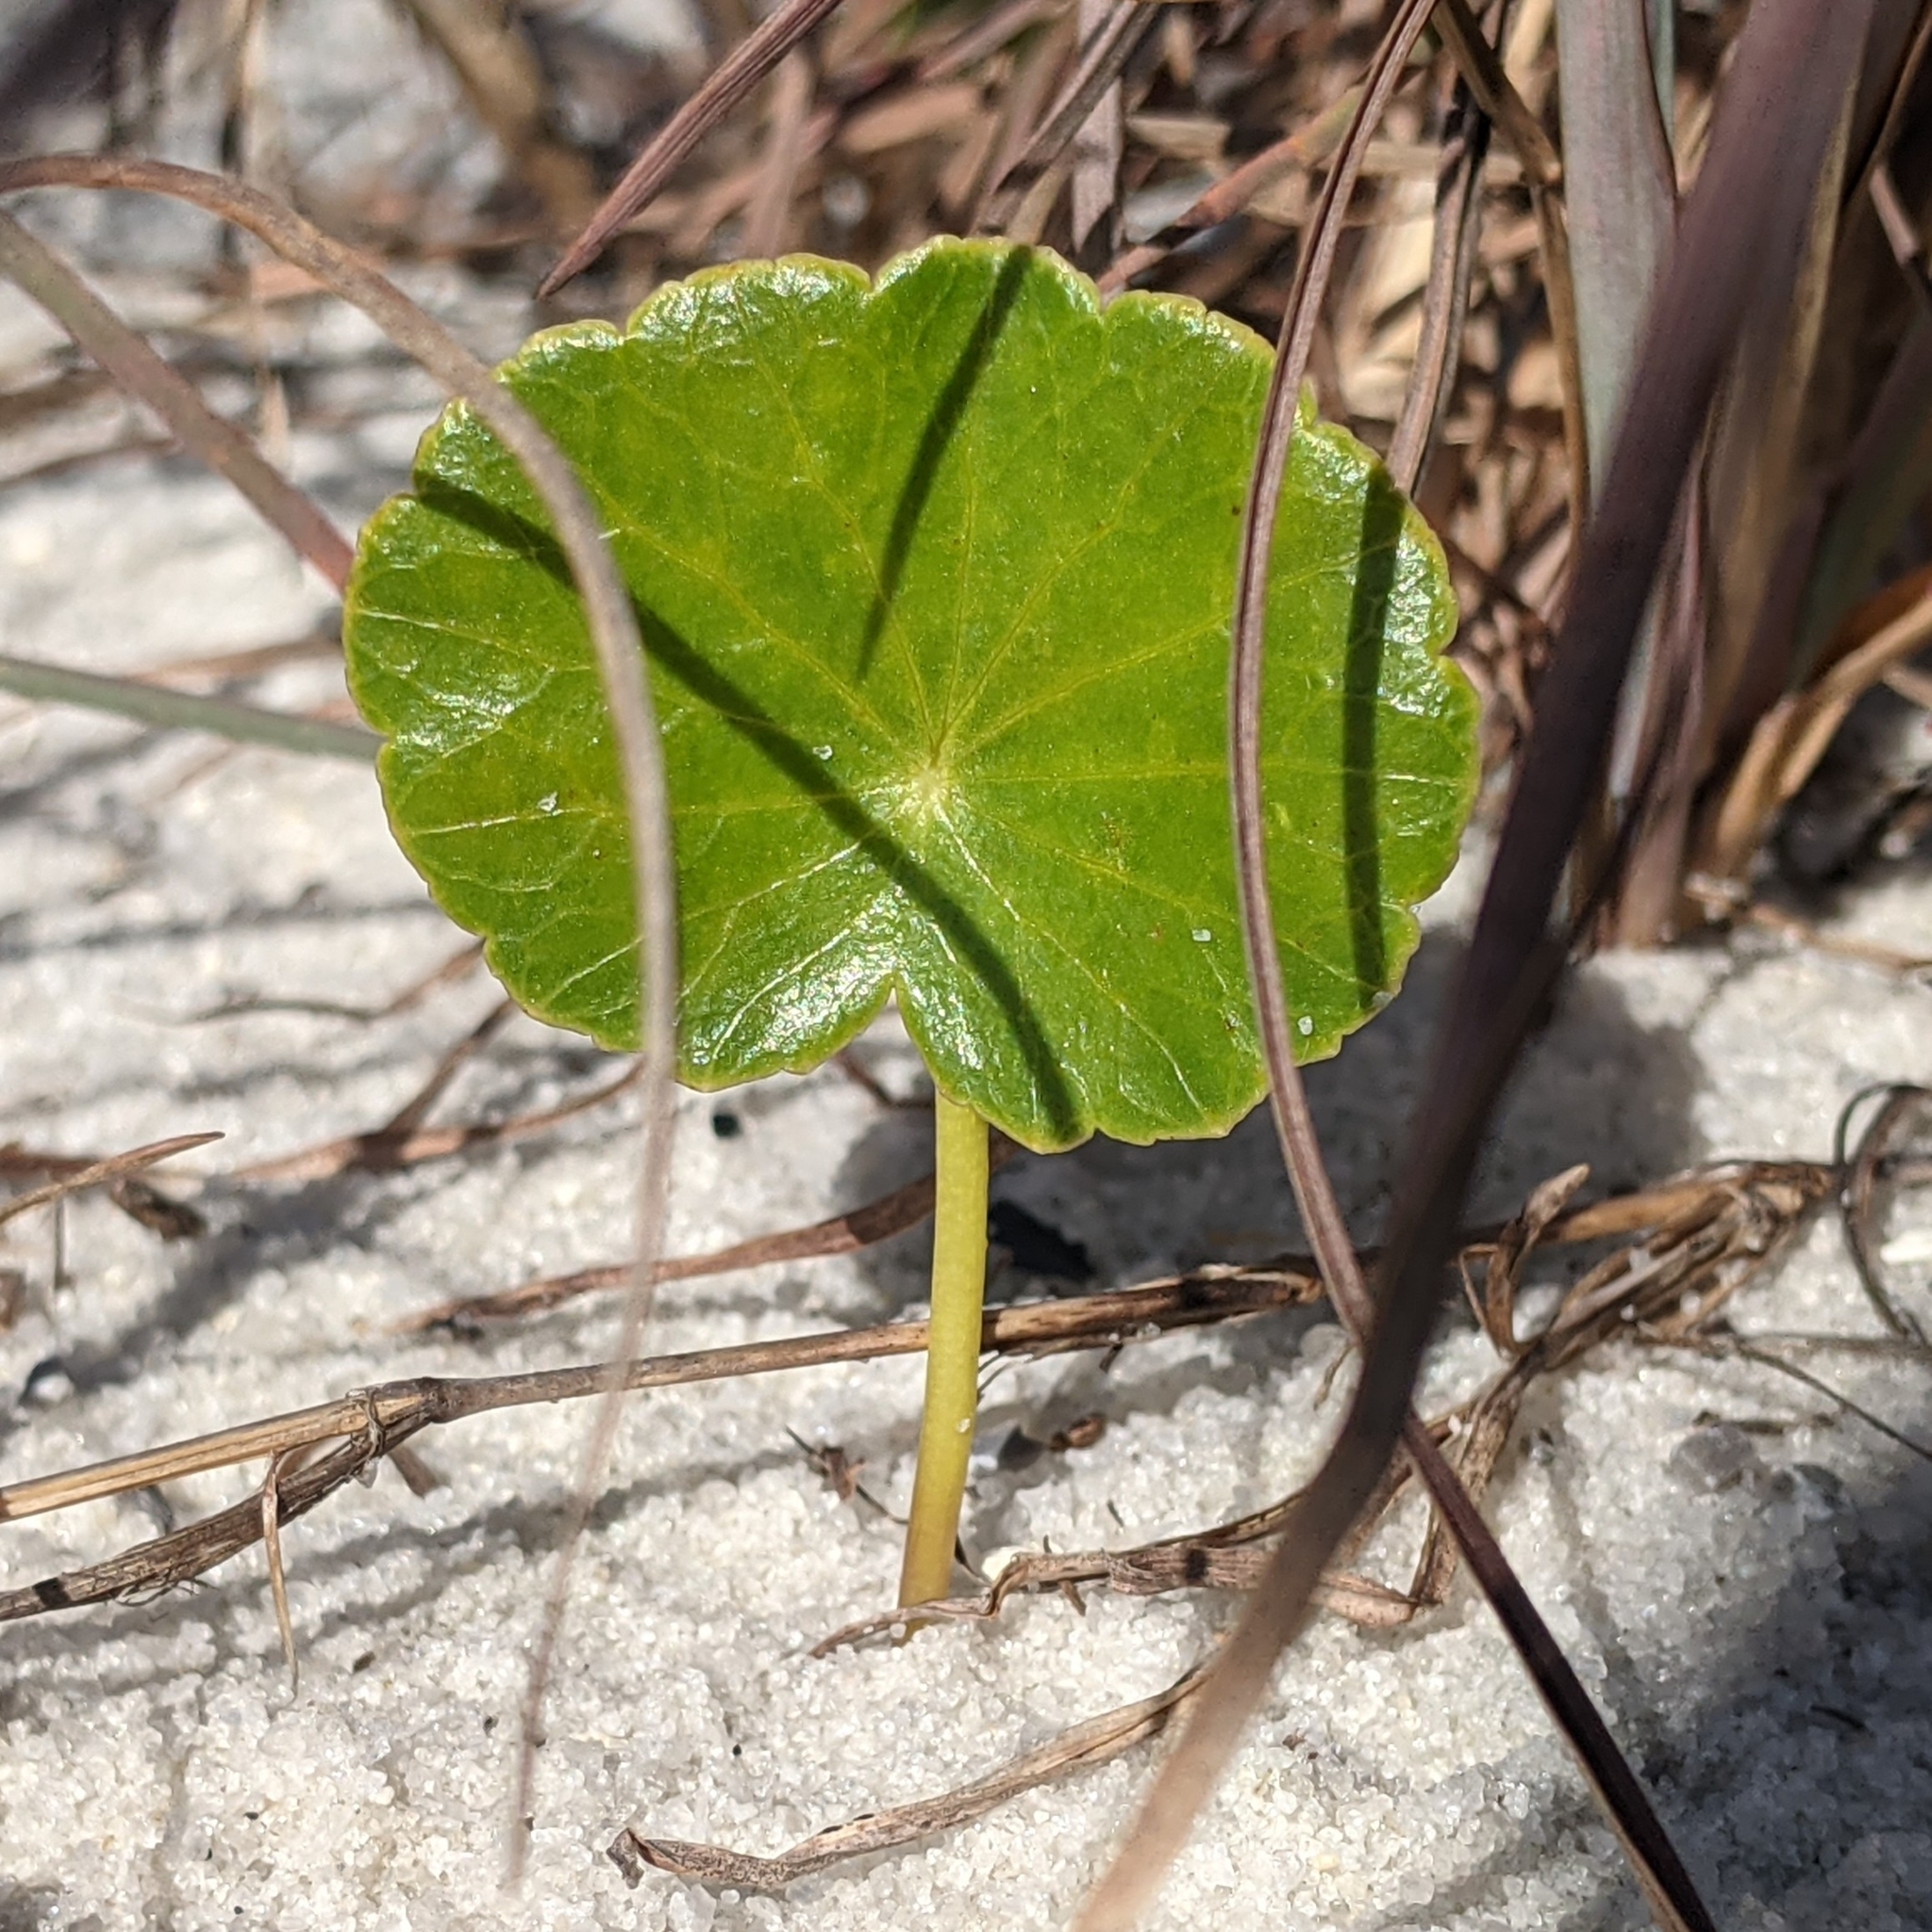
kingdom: Plantae
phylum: Tracheophyta
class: Magnoliopsida
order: Apiales
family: Araliaceae
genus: Hydrocotyle
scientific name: Hydrocotyle bonariensis
